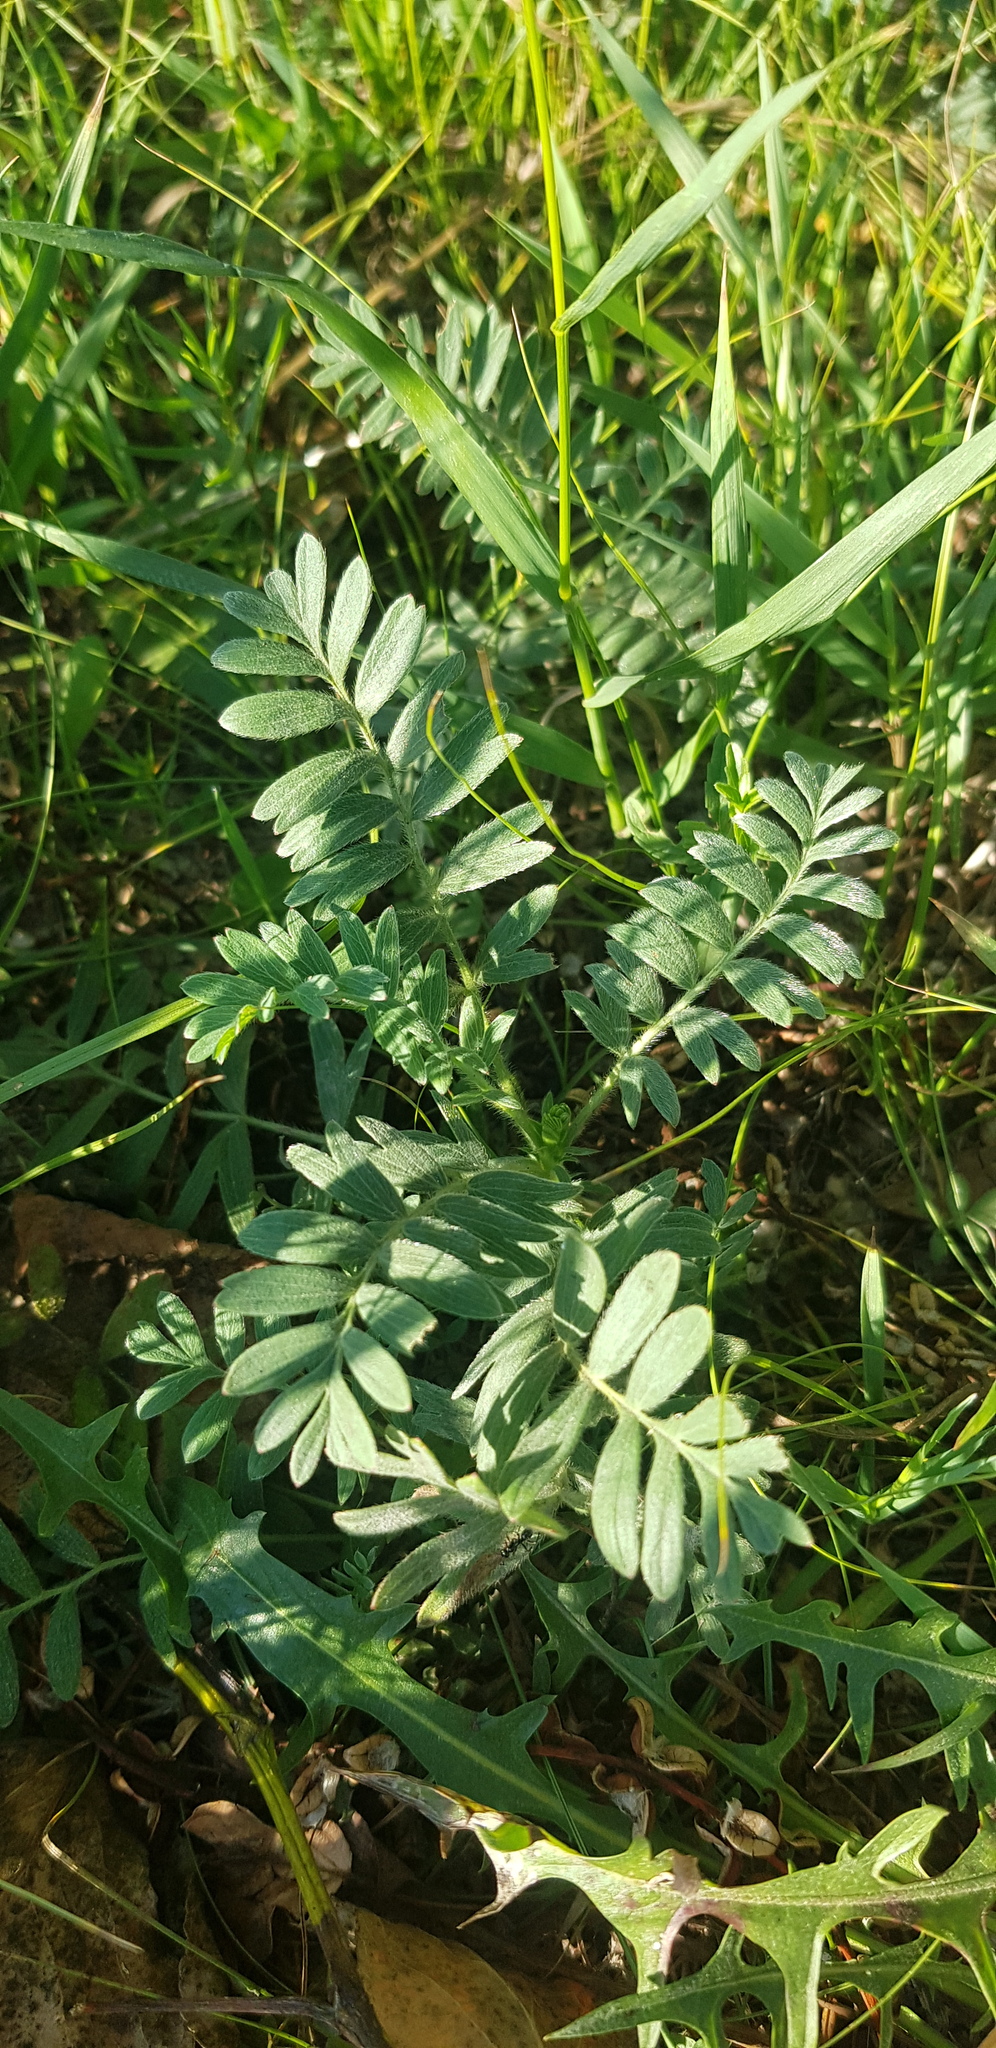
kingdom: Plantae
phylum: Tracheophyta
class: Magnoliopsida
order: Rosales
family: Rosaceae
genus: Sibbaldianthe
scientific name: Sibbaldianthe bifurca
